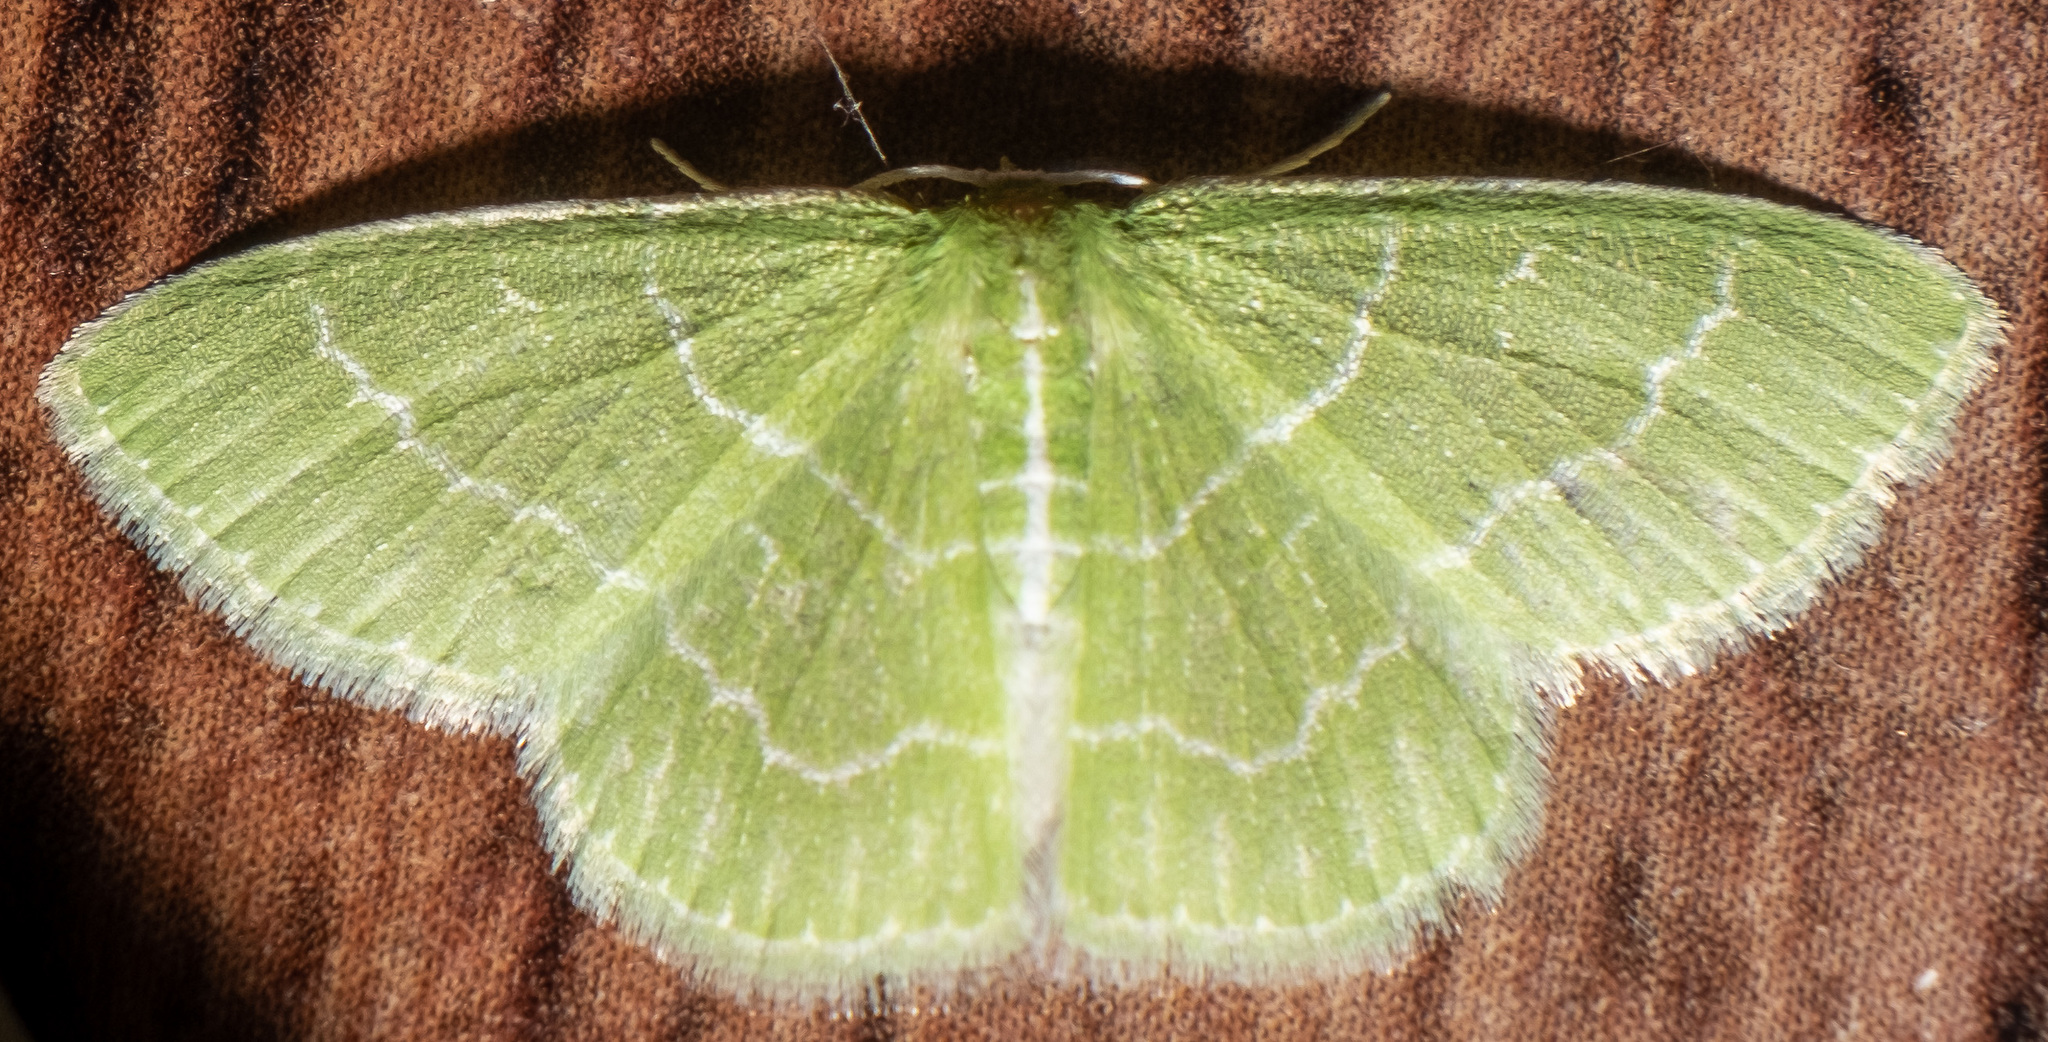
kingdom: Animalia
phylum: Arthropoda
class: Insecta
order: Lepidoptera
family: Geometridae
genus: Synchlora
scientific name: Synchlora aerata
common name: Wavy-lined emerald
